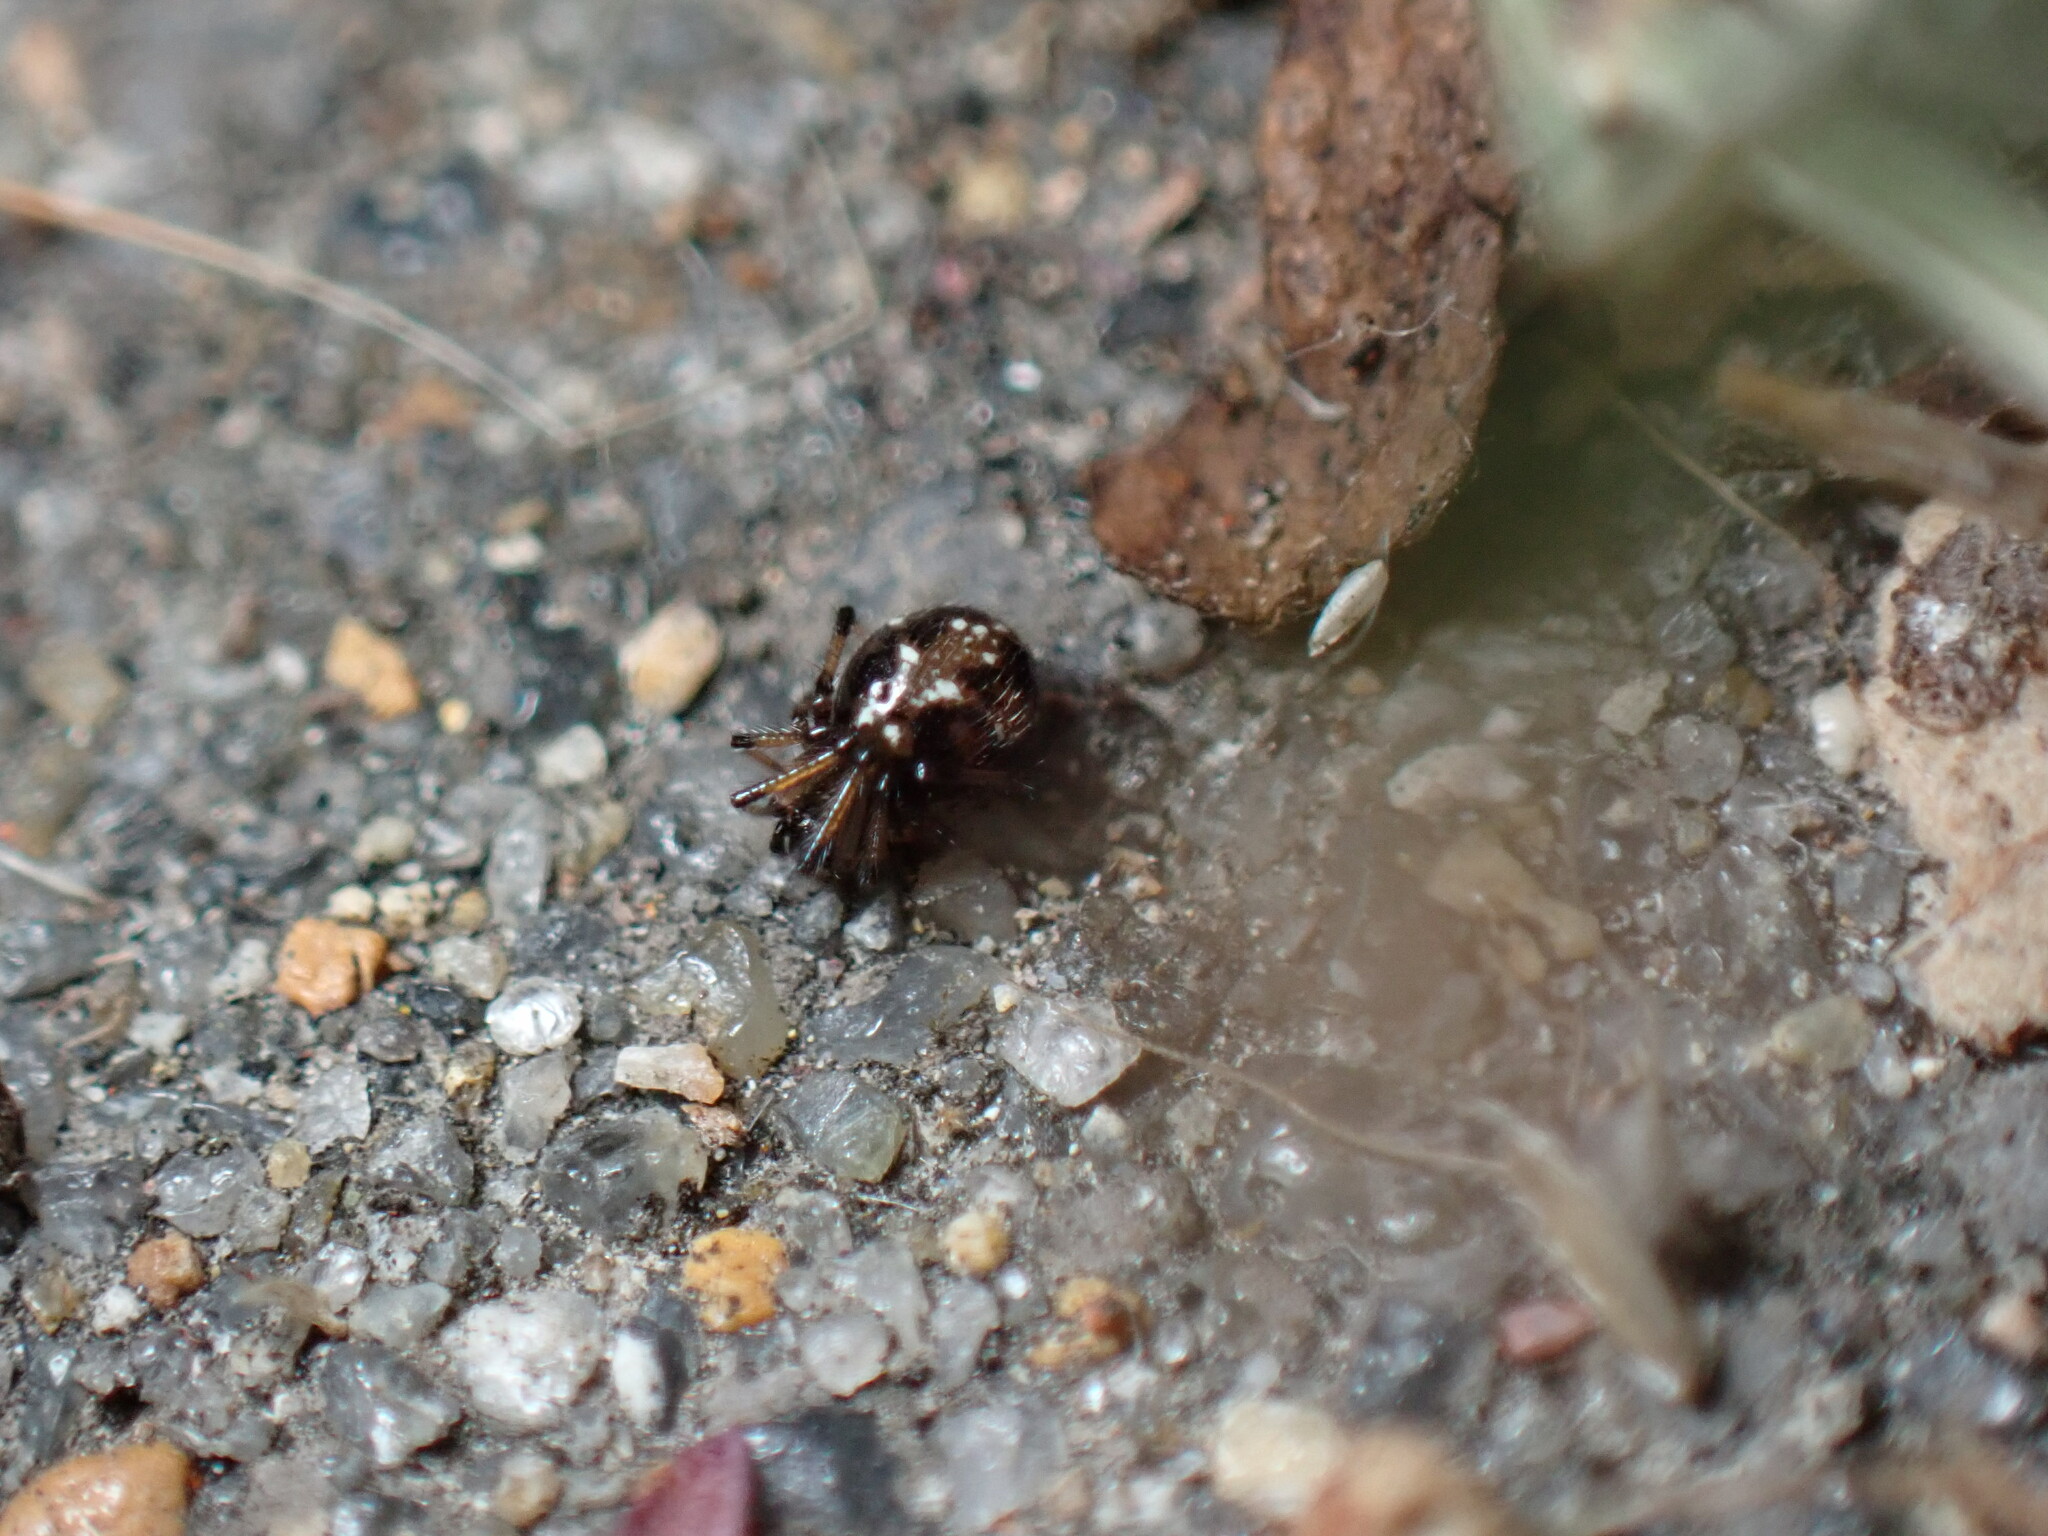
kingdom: Animalia
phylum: Arthropoda
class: Arachnida
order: Araneae
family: Theridiidae
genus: Coleosoma
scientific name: Coleosoma floridanum
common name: Spider
